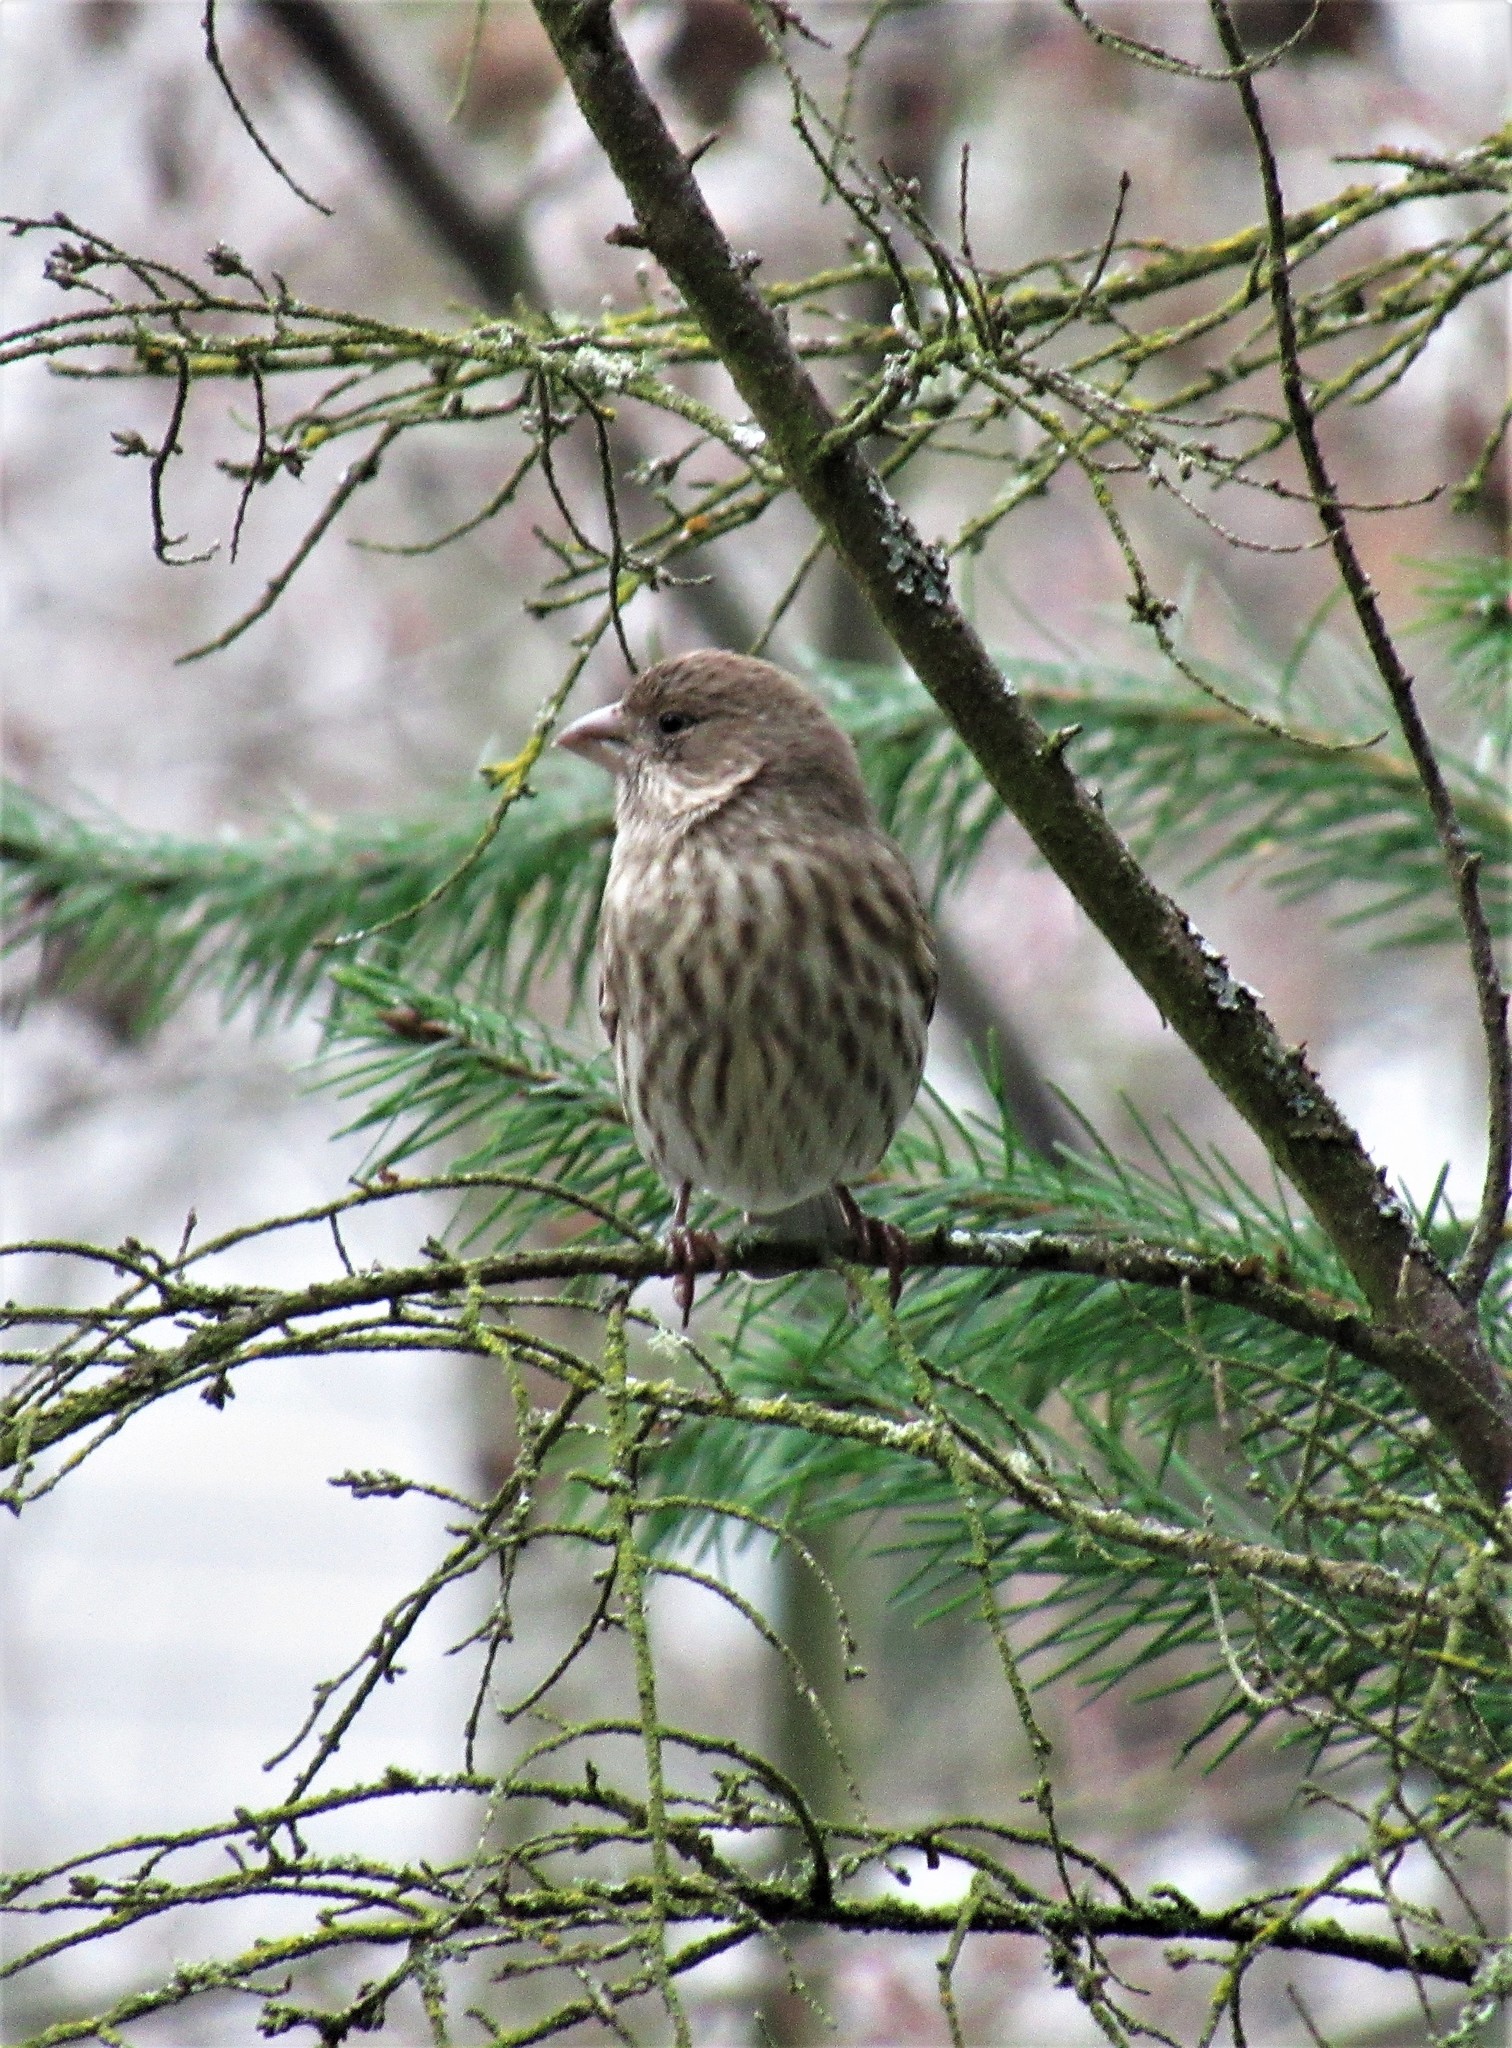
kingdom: Animalia
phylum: Chordata
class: Aves
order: Passeriformes
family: Fringillidae
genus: Haemorhous
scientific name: Haemorhous mexicanus
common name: House finch
